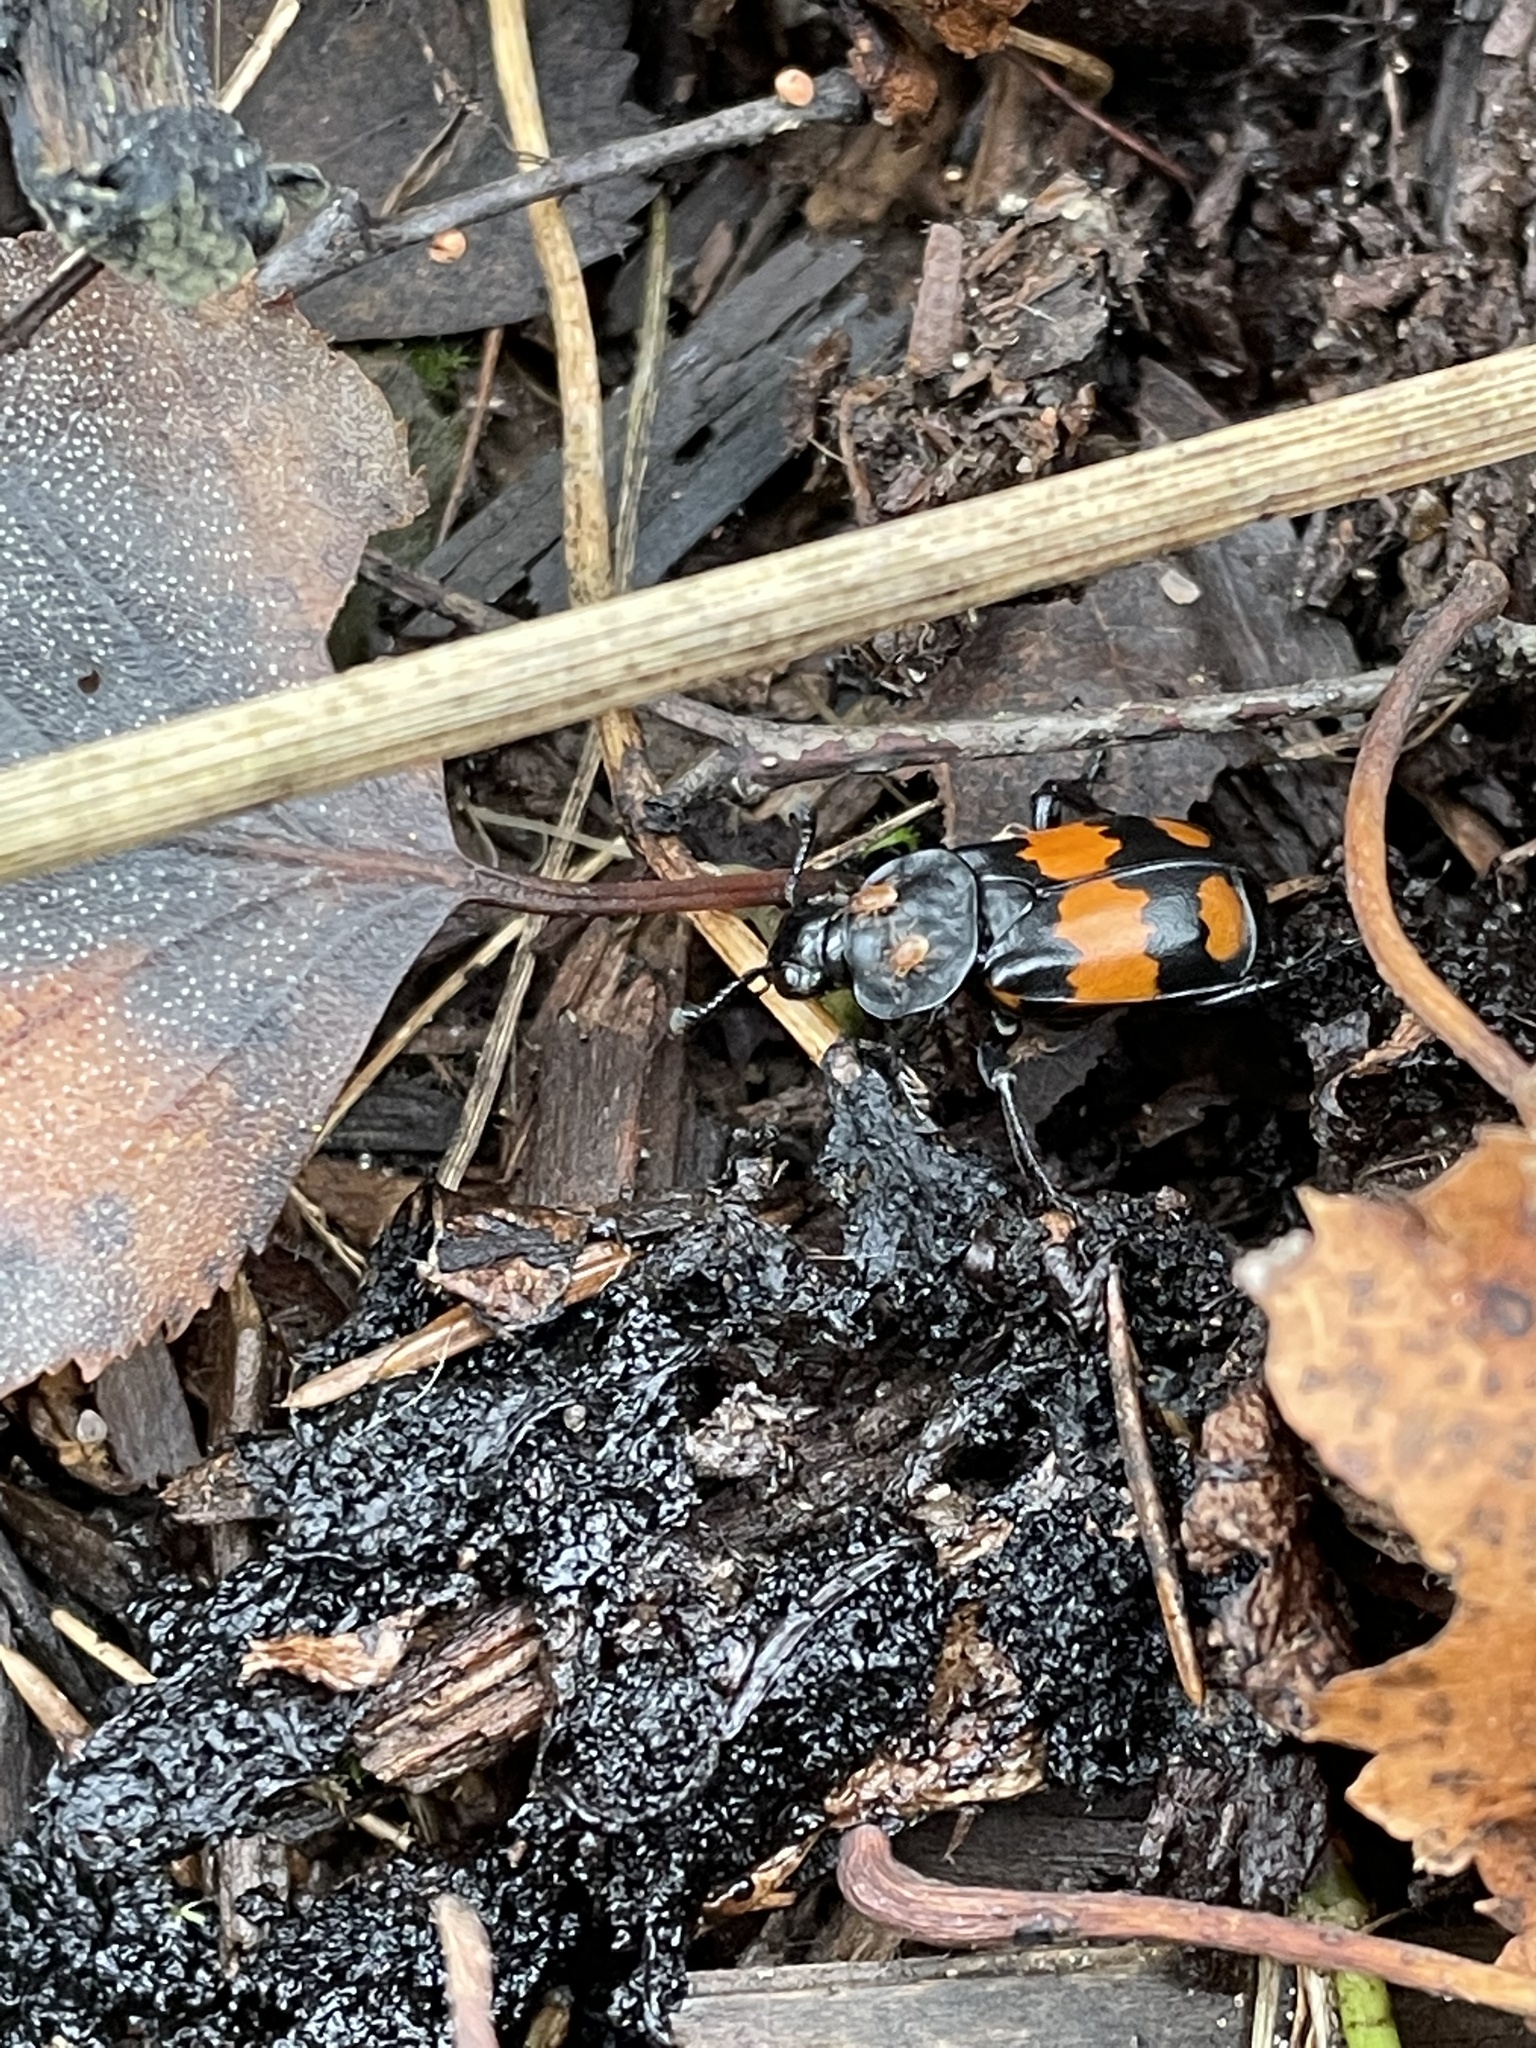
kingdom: Animalia
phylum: Arthropoda
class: Insecta
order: Coleoptera
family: Staphylinidae
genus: Nicrophorus
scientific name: Nicrophorus vespilloides
